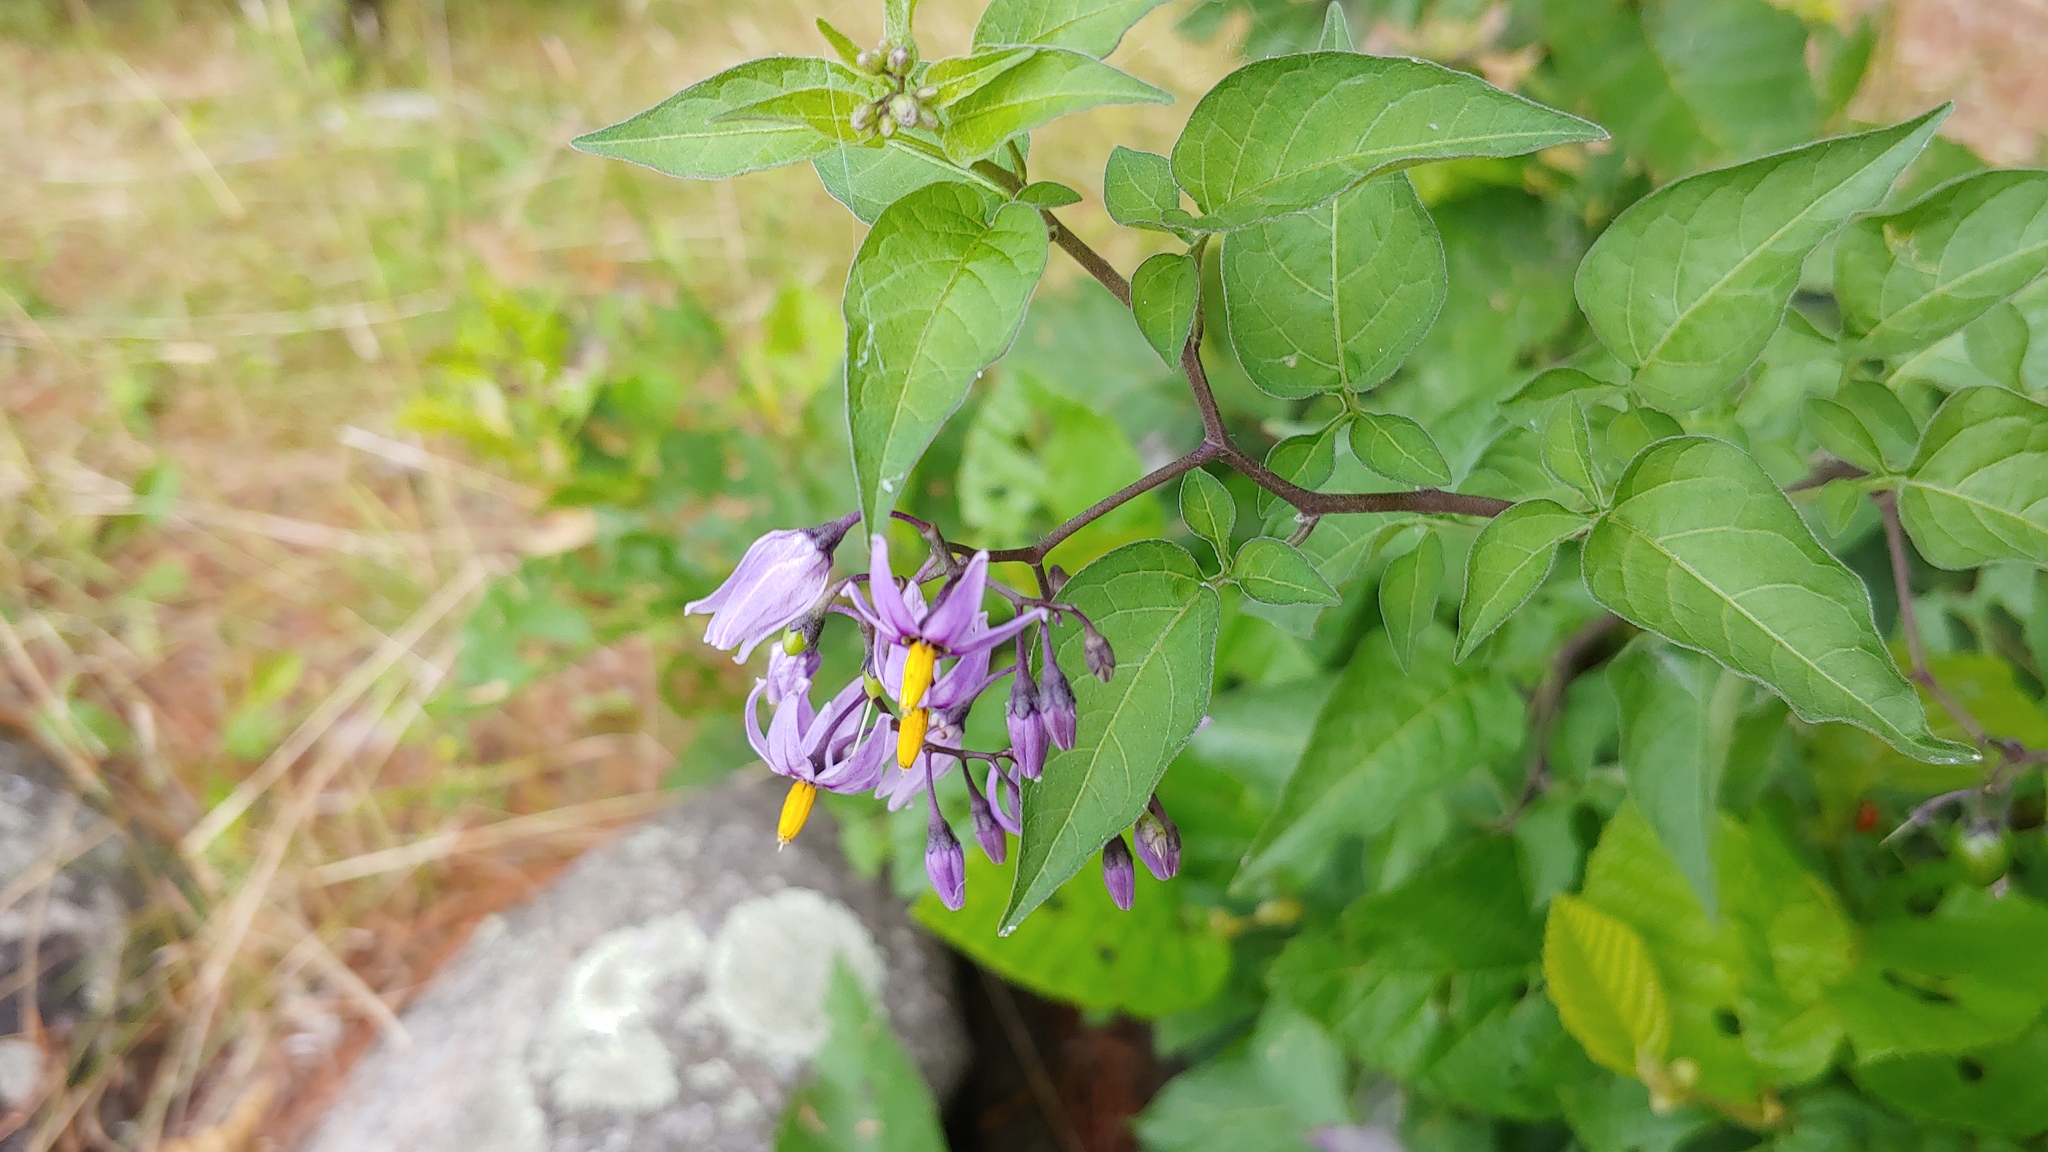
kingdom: Plantae
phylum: Tracheophyta
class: Magnoliopsida
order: Solanales
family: Solanaceae
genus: Solanum
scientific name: Solanum dulcamara
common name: Climbing nightshade
